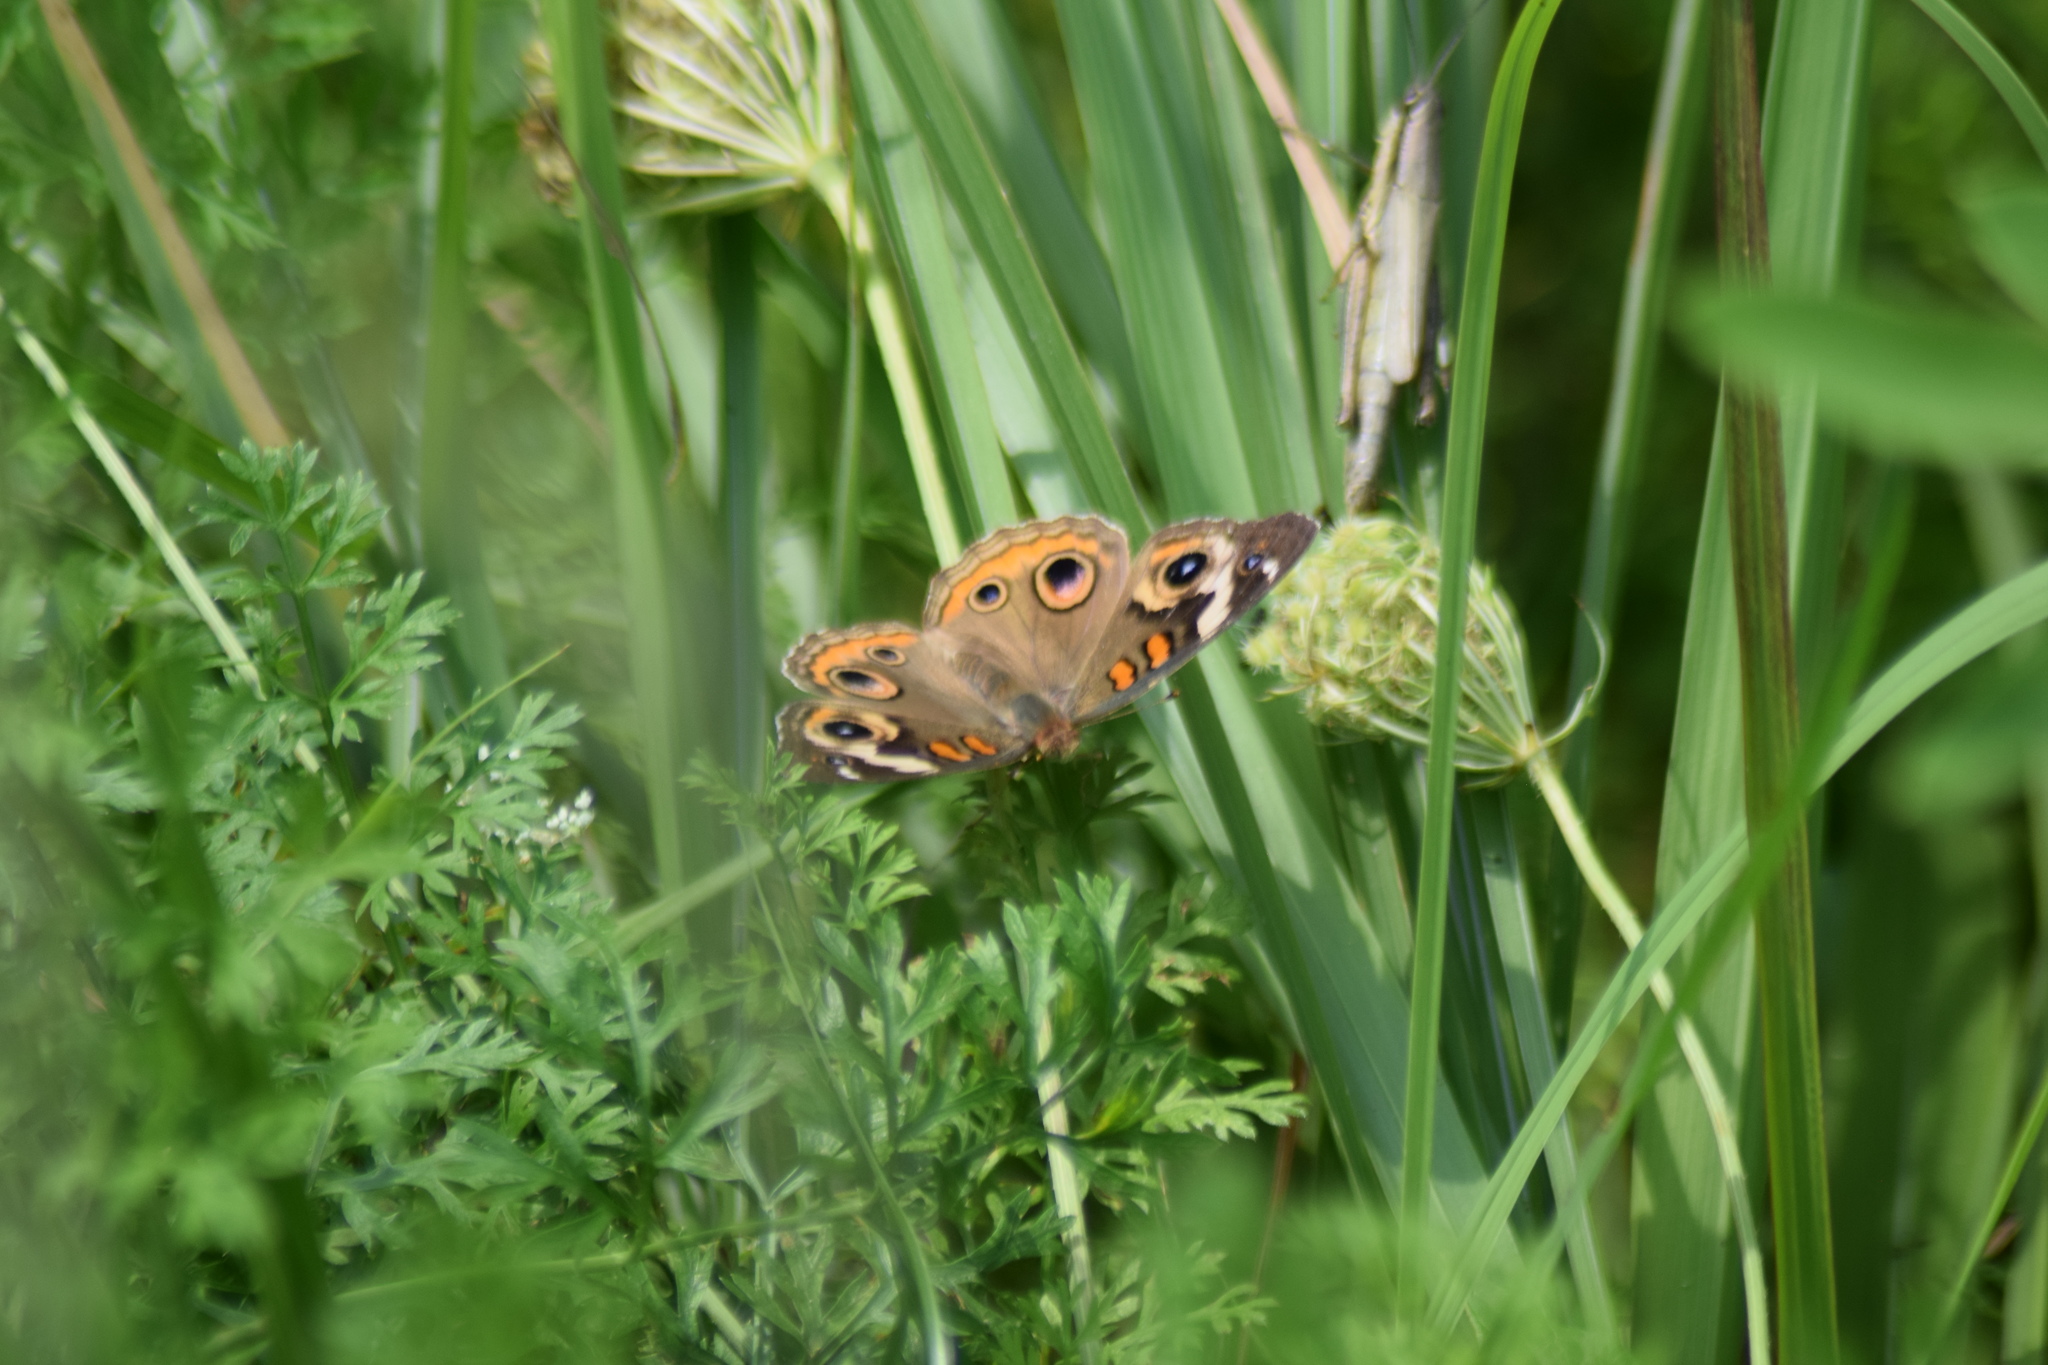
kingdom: Animalia
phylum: Arthropoda
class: Insecta
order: Lepidoptera
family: Nymphalidae
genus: Junonia
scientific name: Junonia coenia
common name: Common buckeye
